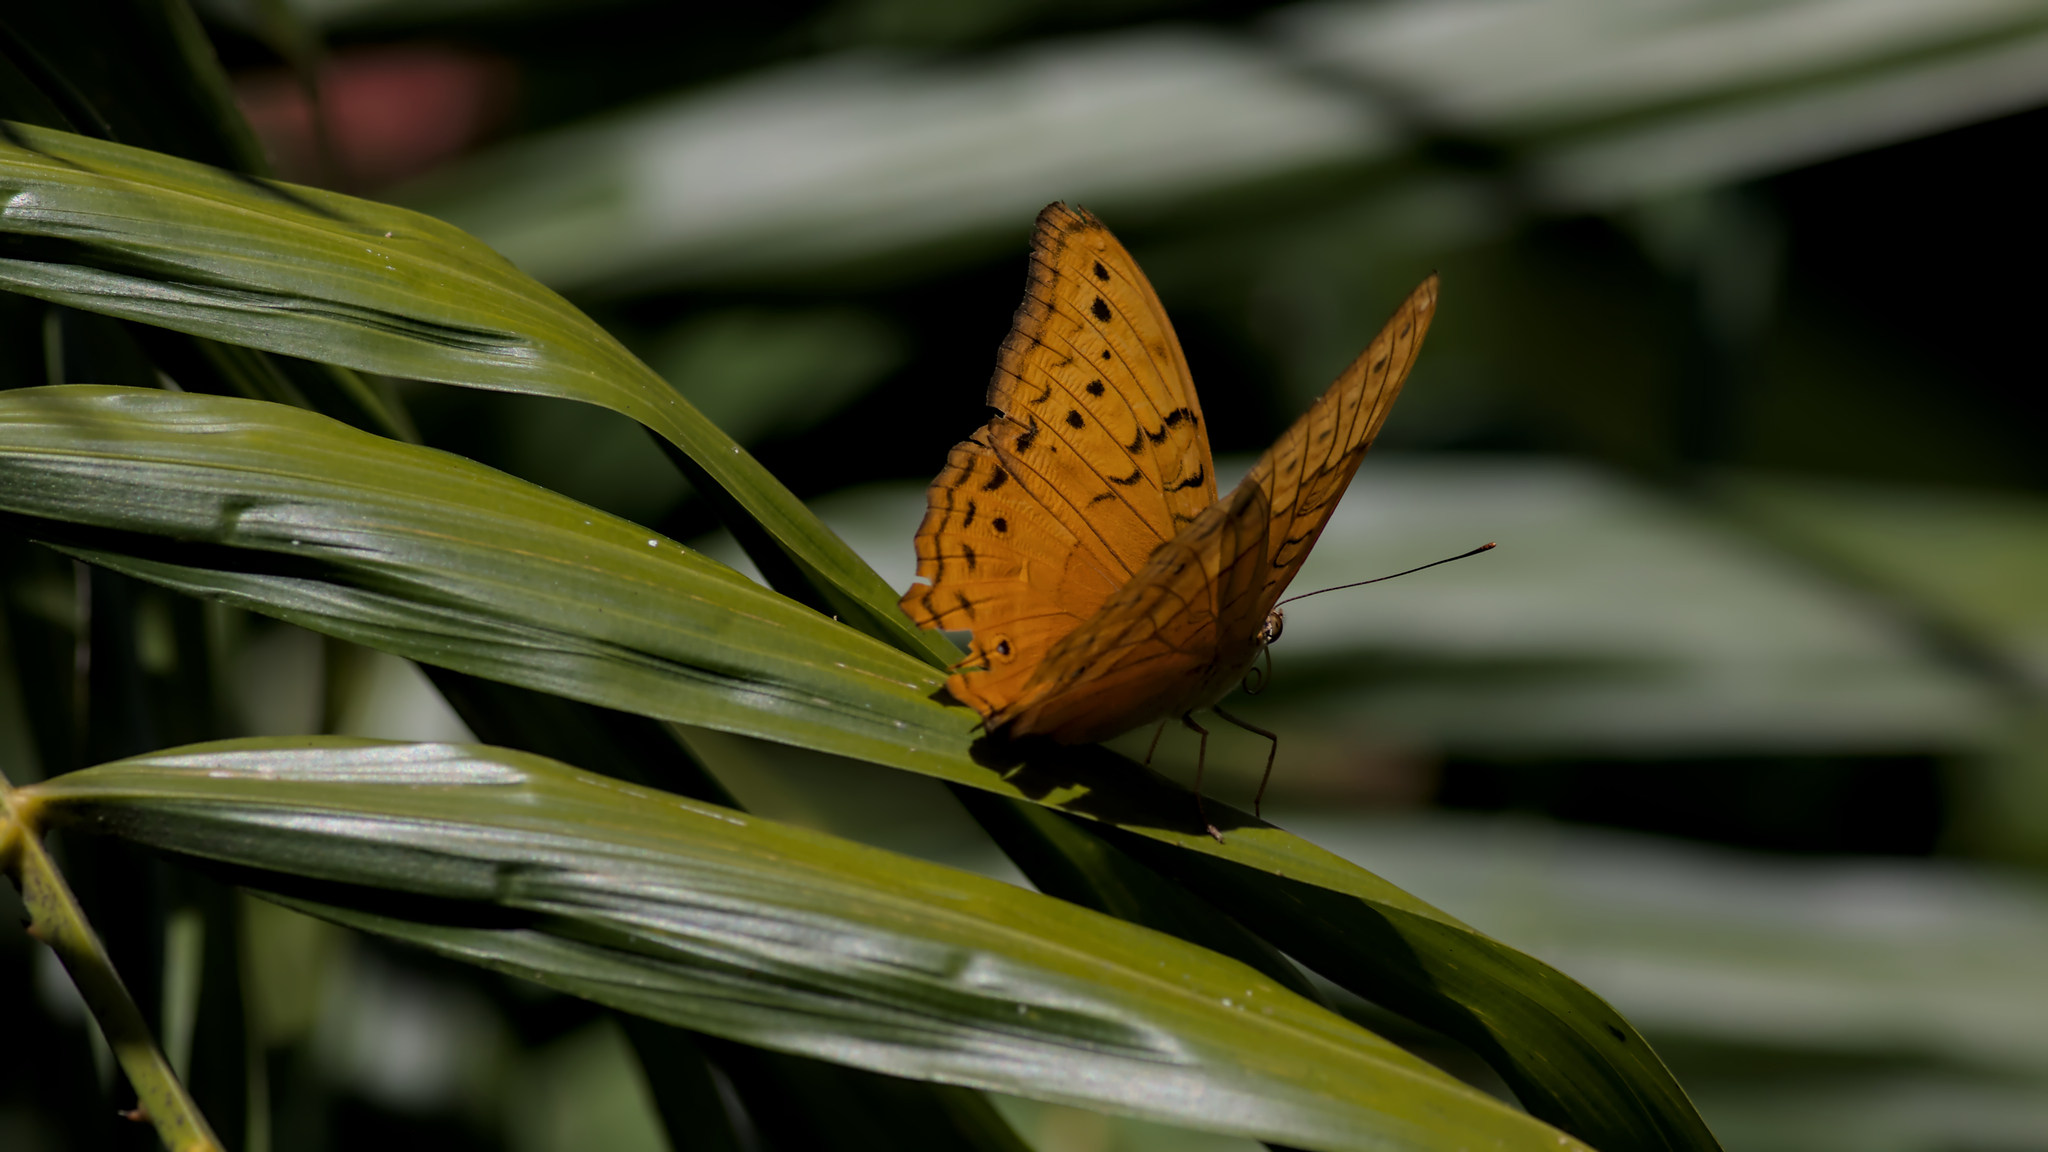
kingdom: Animalia
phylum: Arthropoda
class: Insecta
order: Lepidoptera
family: Nymphalidae
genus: Vindula
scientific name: Vindula arsinoe
